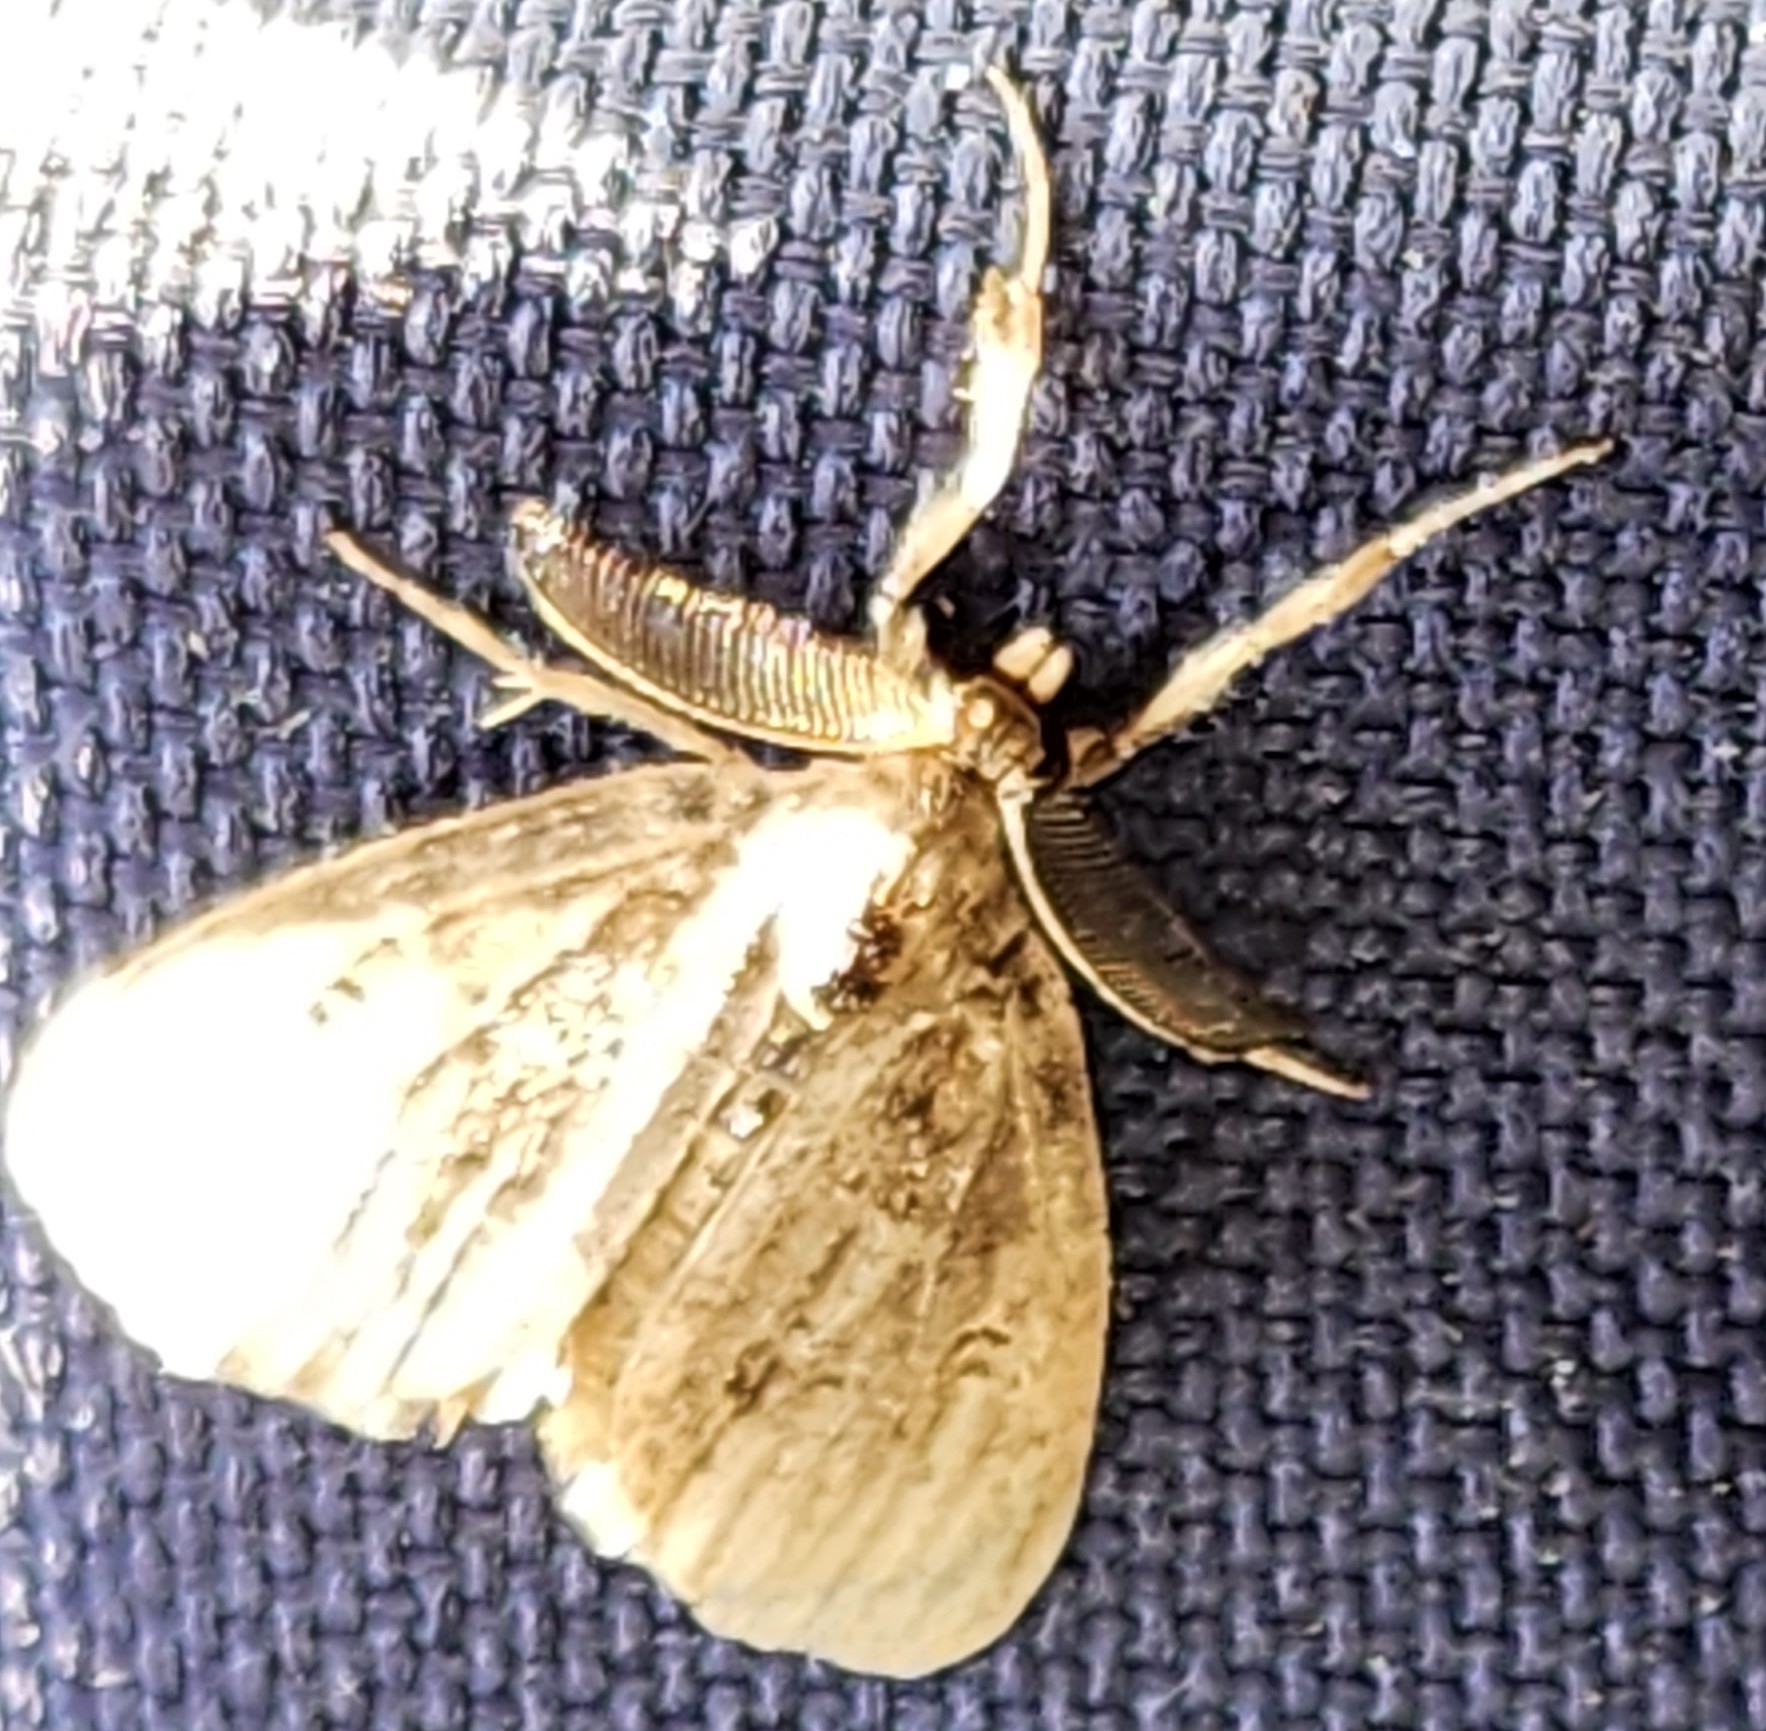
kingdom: Animalia
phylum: Arthropoda
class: Insecta
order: Lepidoptera
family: Erebidae
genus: Orgyia
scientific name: Orgyia detrita
